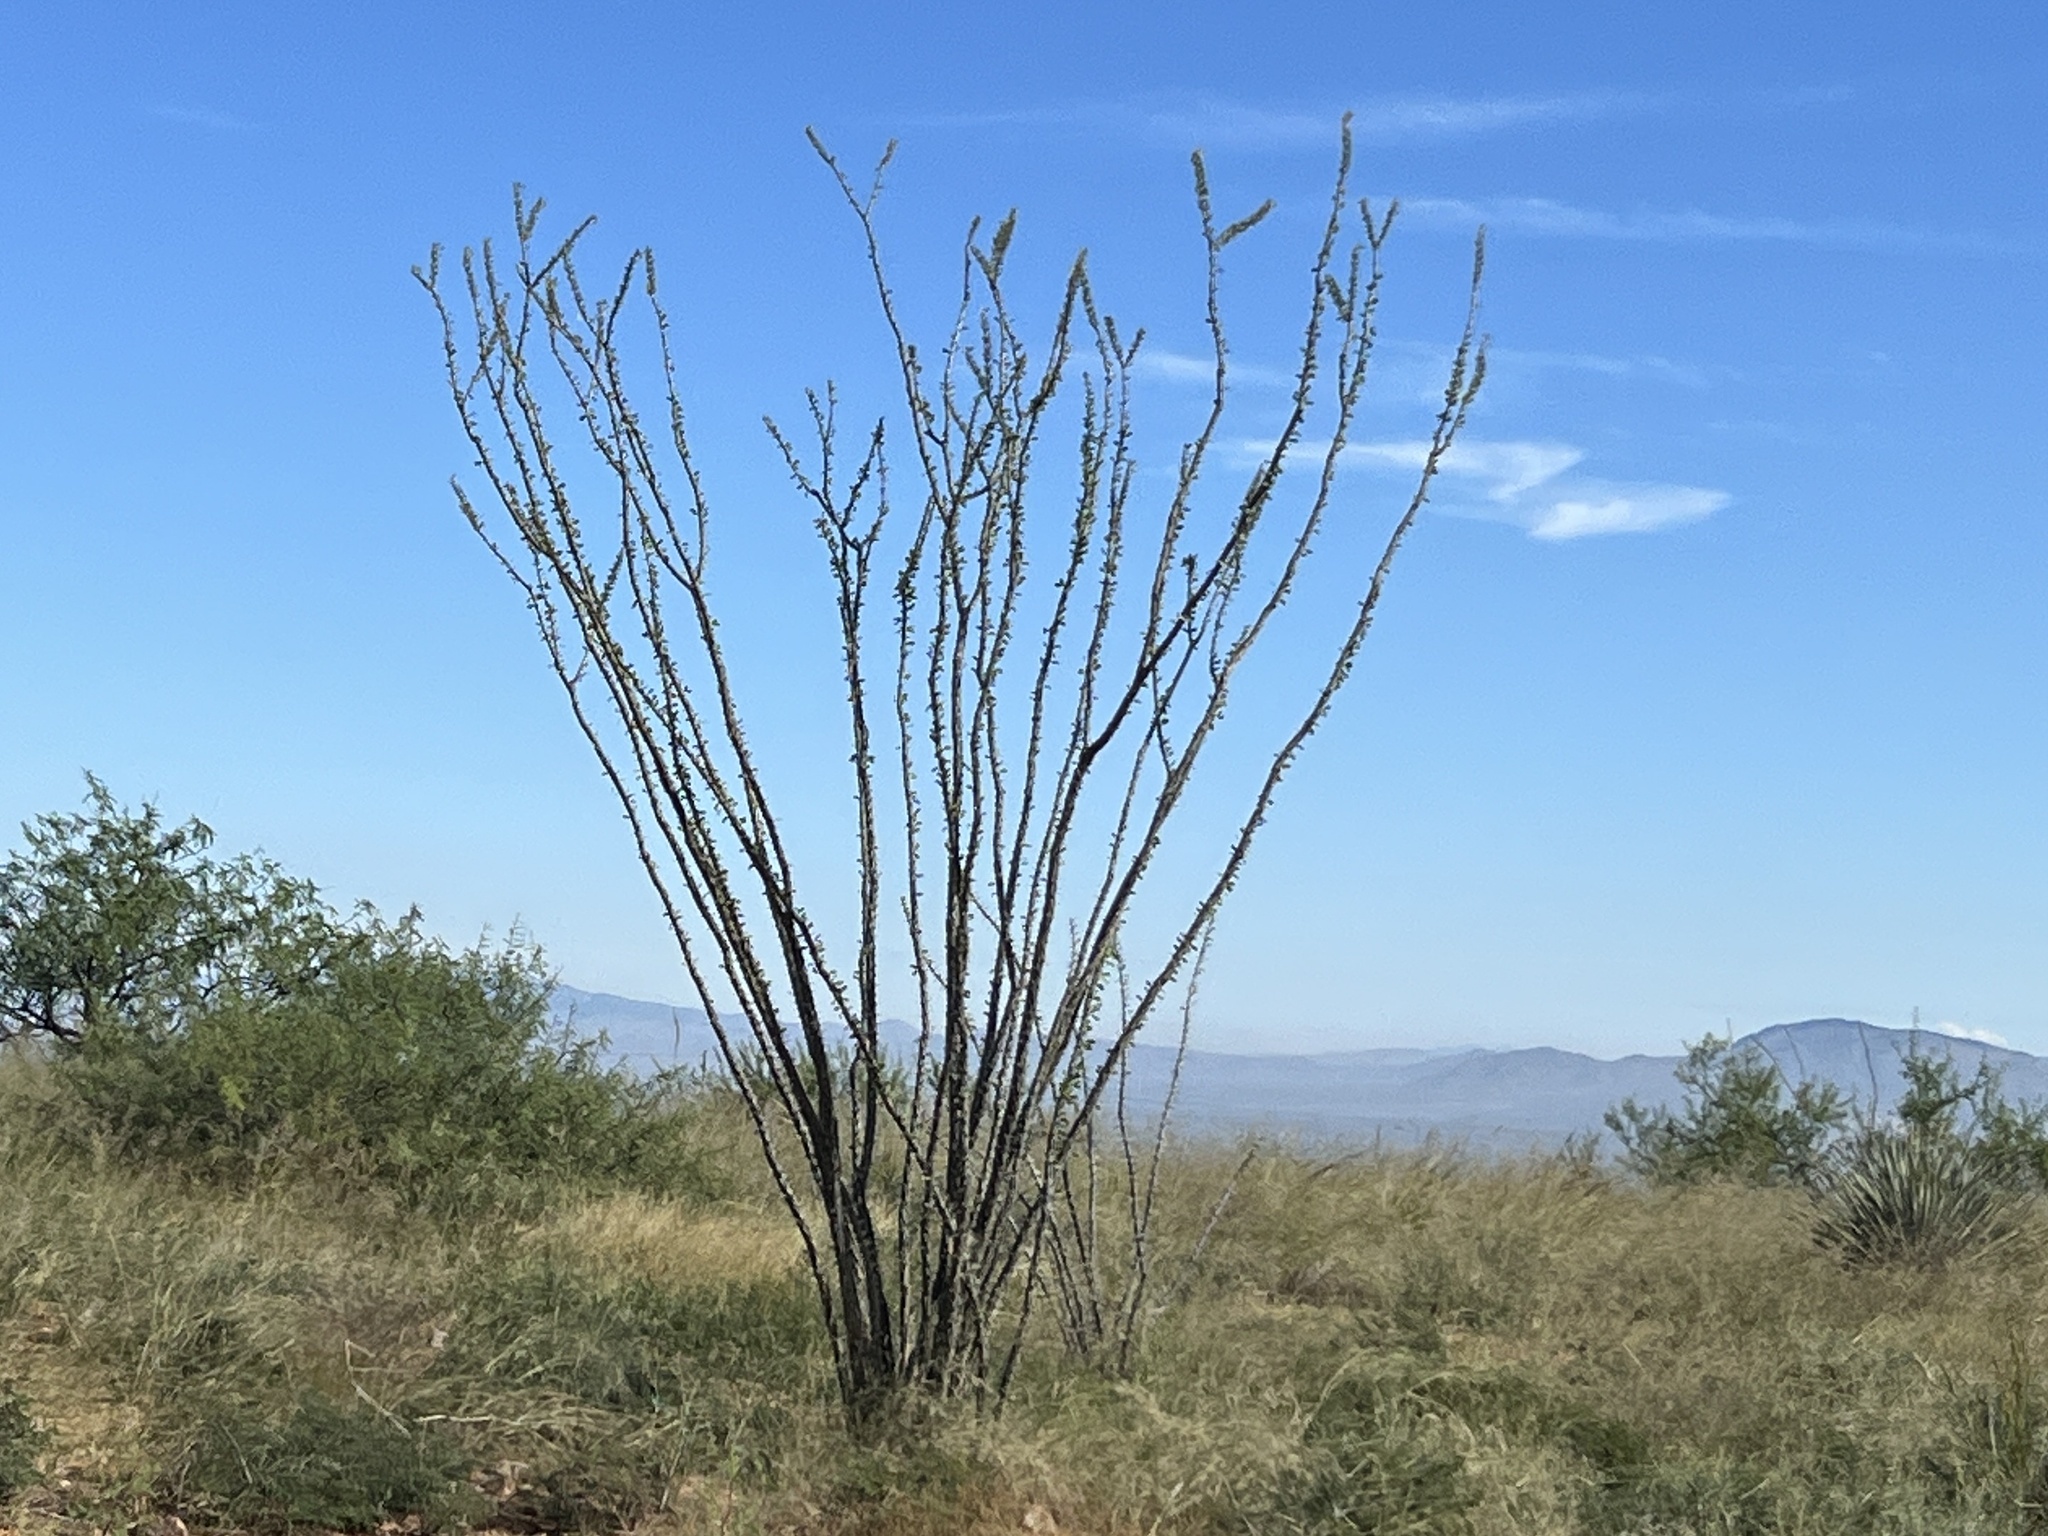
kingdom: Plantae
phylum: Tracheophyta
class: Magnoliopsida
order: Ericales
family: Fouquieriaceae
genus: Fouquieria
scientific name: Fouquieria splendens
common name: Vine-cactus
